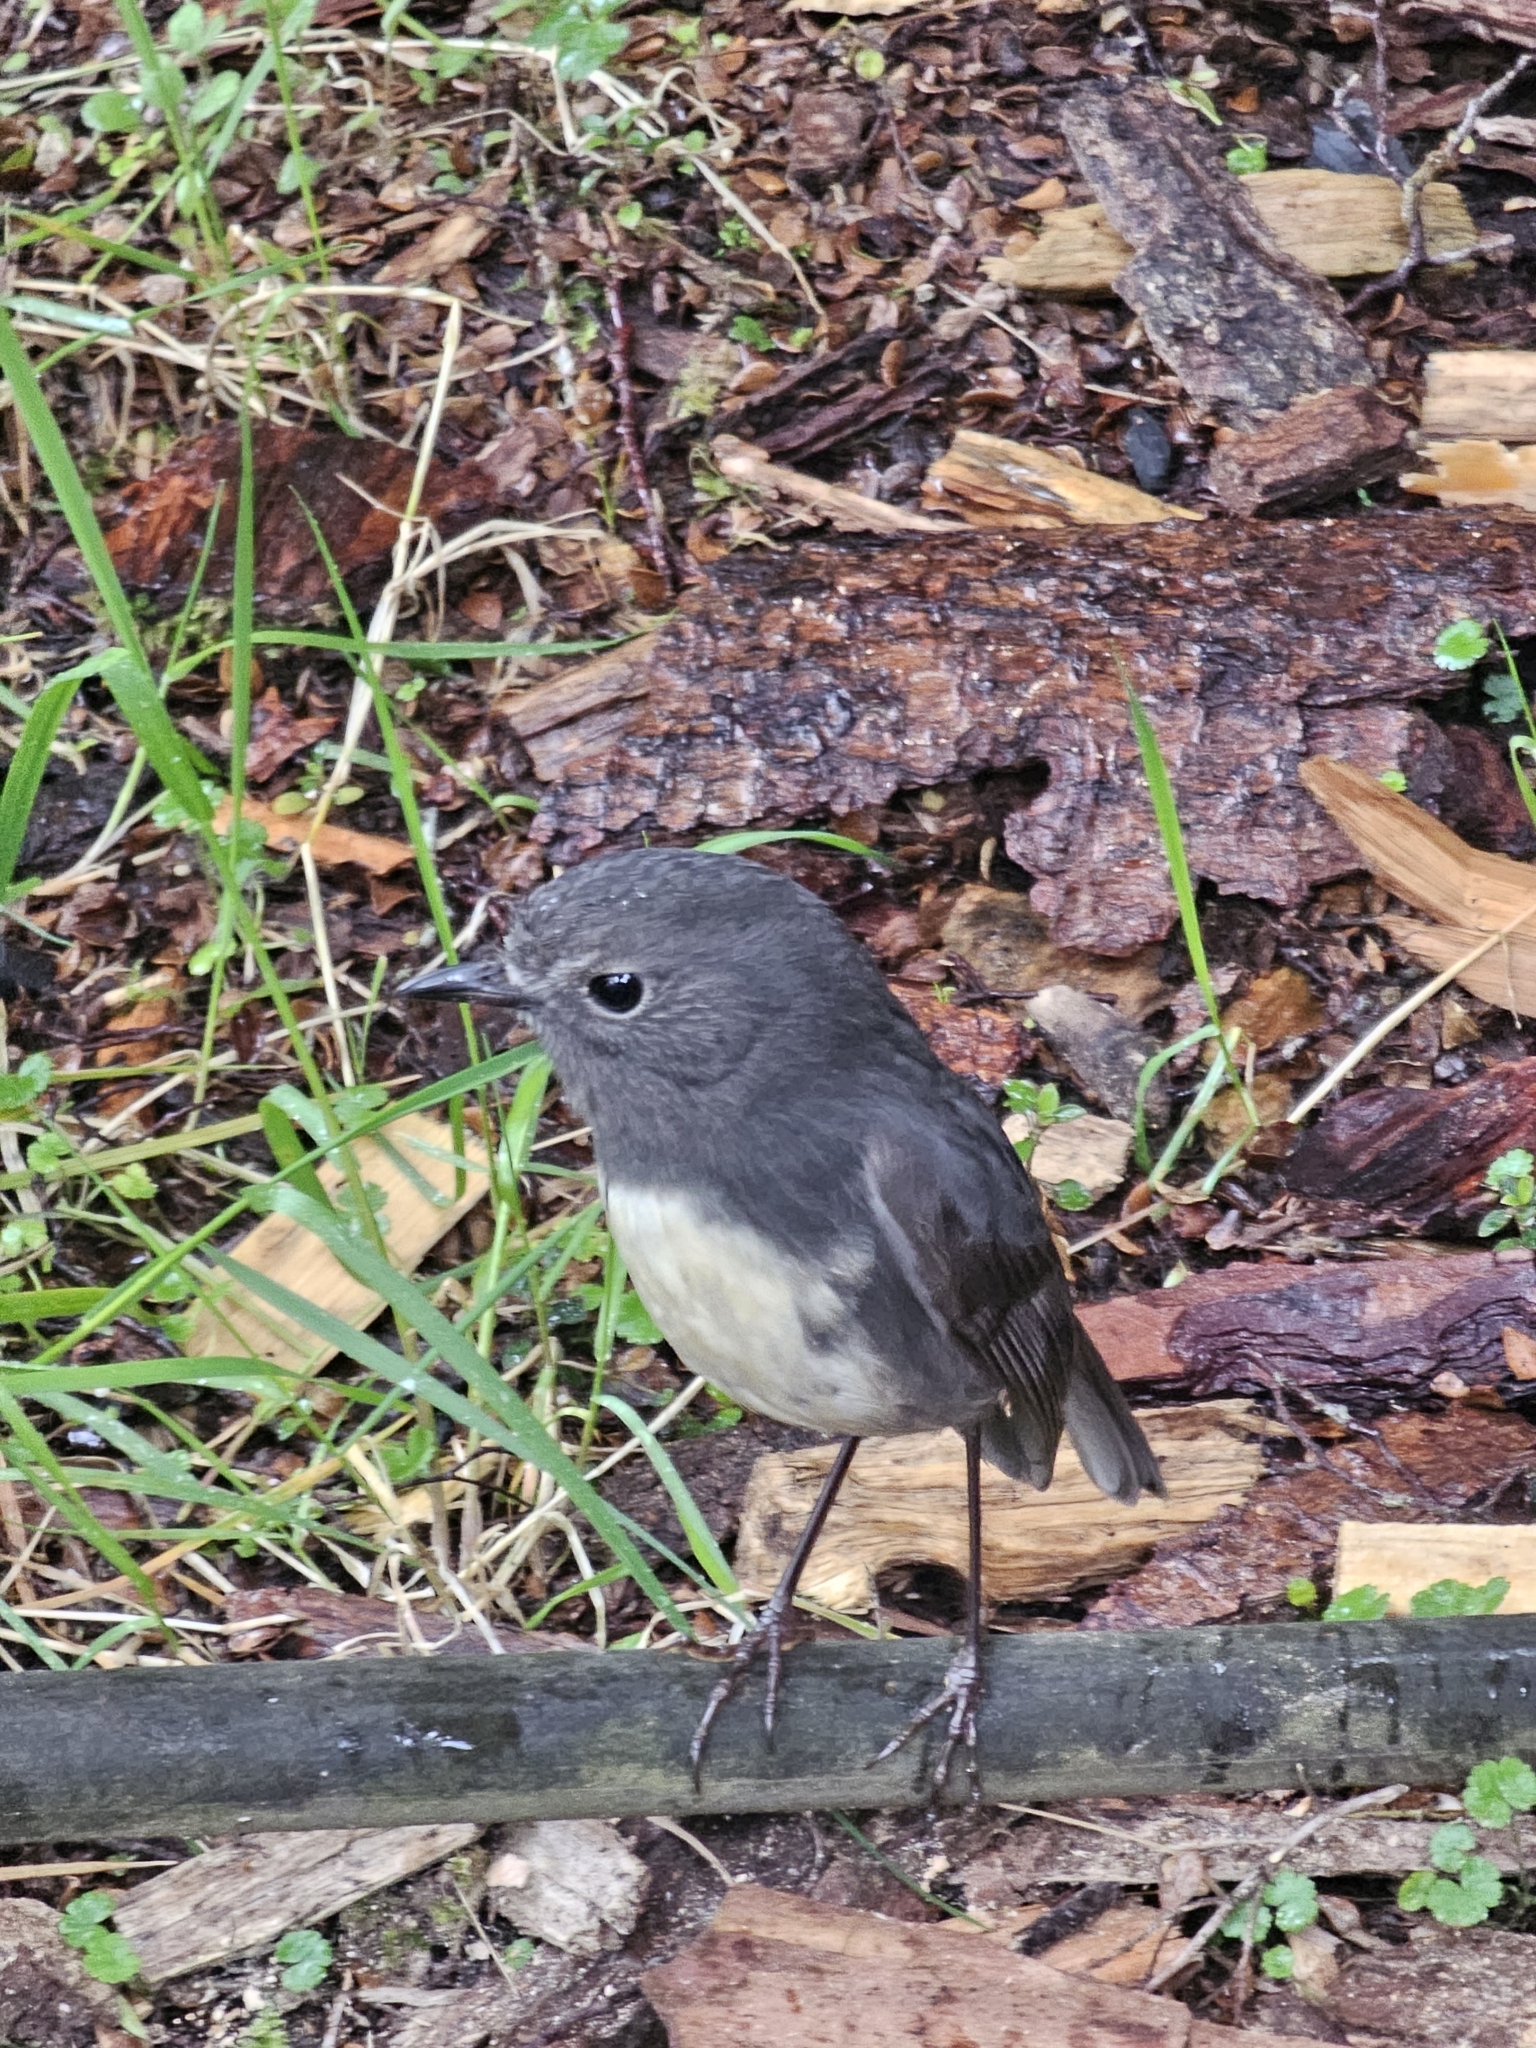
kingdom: Animalia
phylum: Chordata
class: Aves
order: Passeriformes
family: Petroicidae
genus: Petroica
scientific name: Petroica australis
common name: New zealand robin
